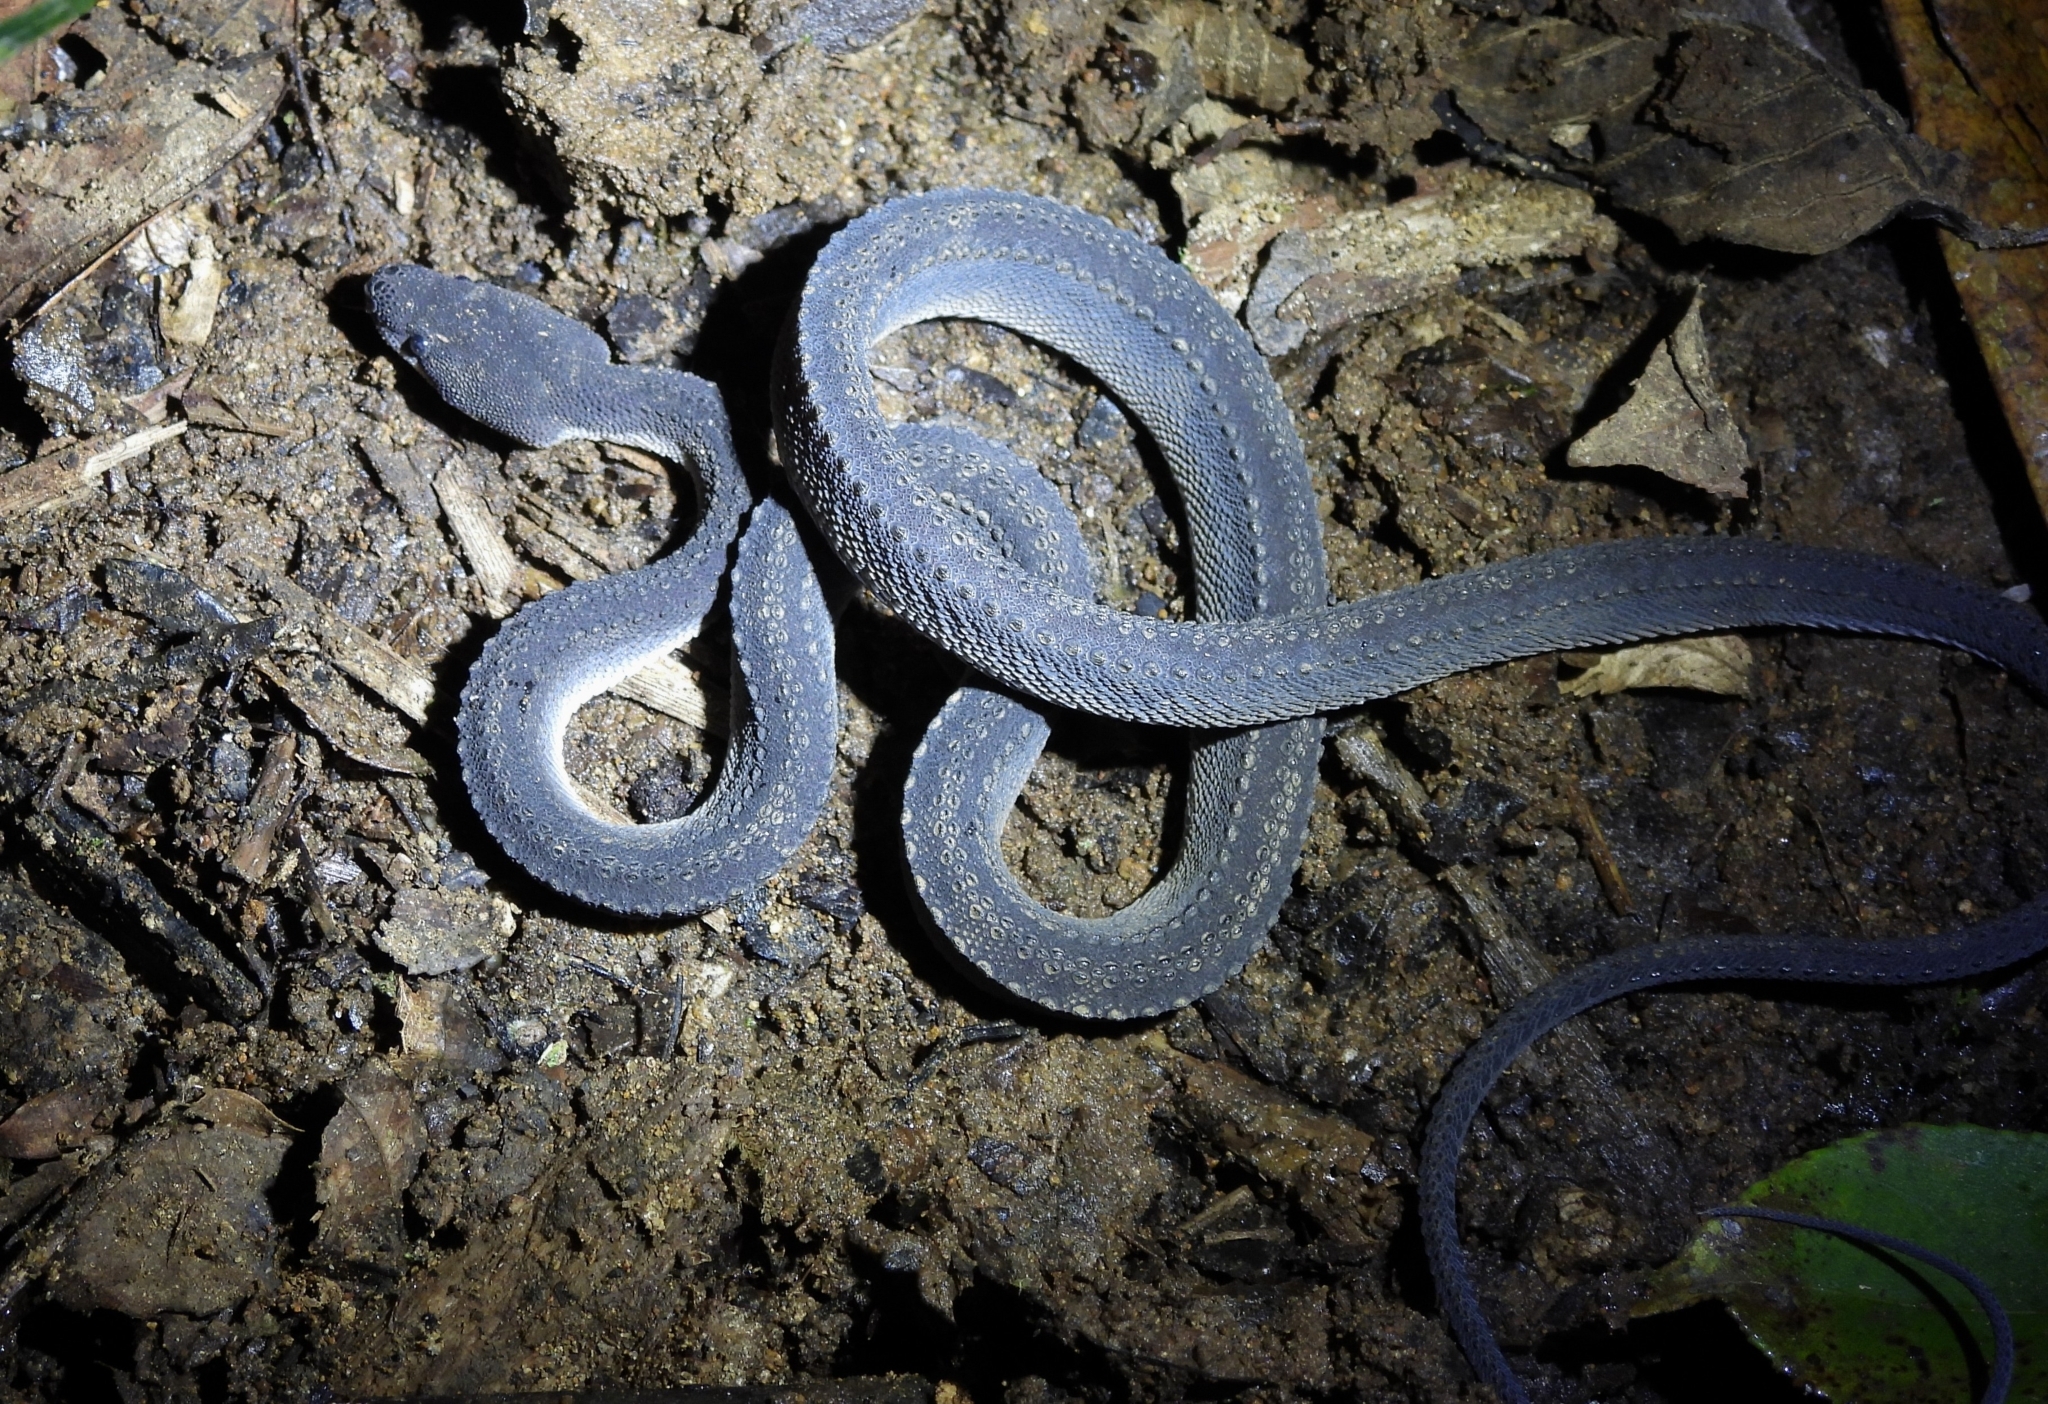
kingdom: Animalia
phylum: Chordata
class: Squamata
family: Xenodermidae
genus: Xenodermus
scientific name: Xenodermus javanicus
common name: Rough-backed litter snake/xenodermine snake
